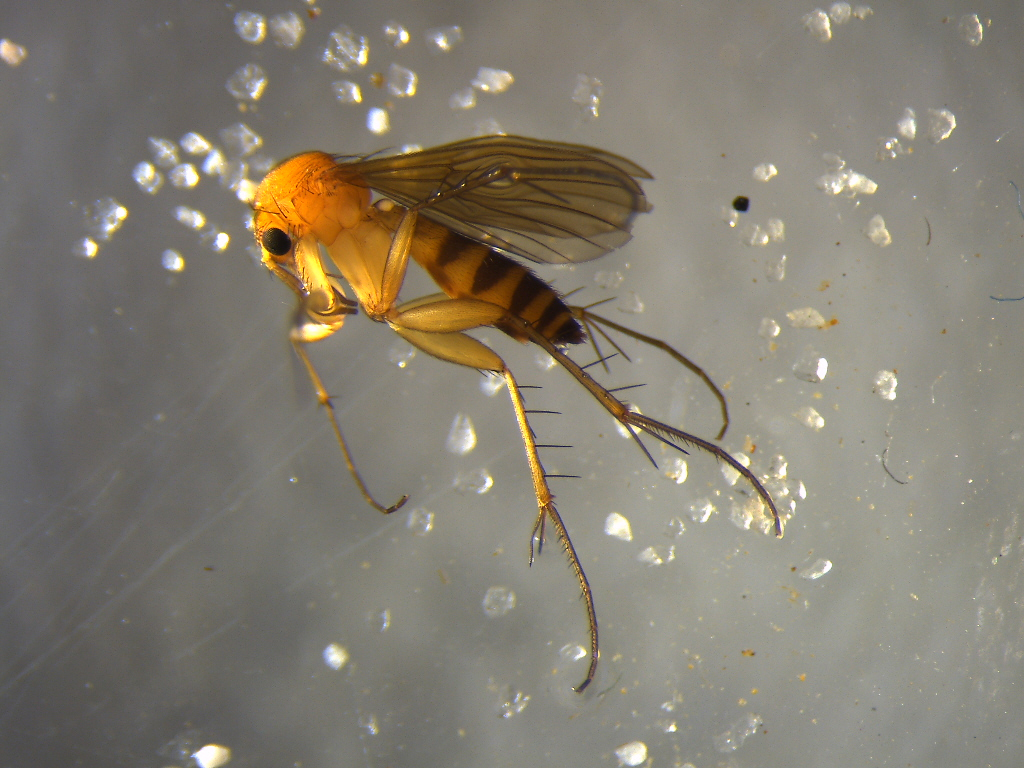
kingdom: Animalia
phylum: Arthropoda
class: Insecta
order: Diptera
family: Mycetophilidae
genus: Mycetophila
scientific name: Mycetophila subspinigera
